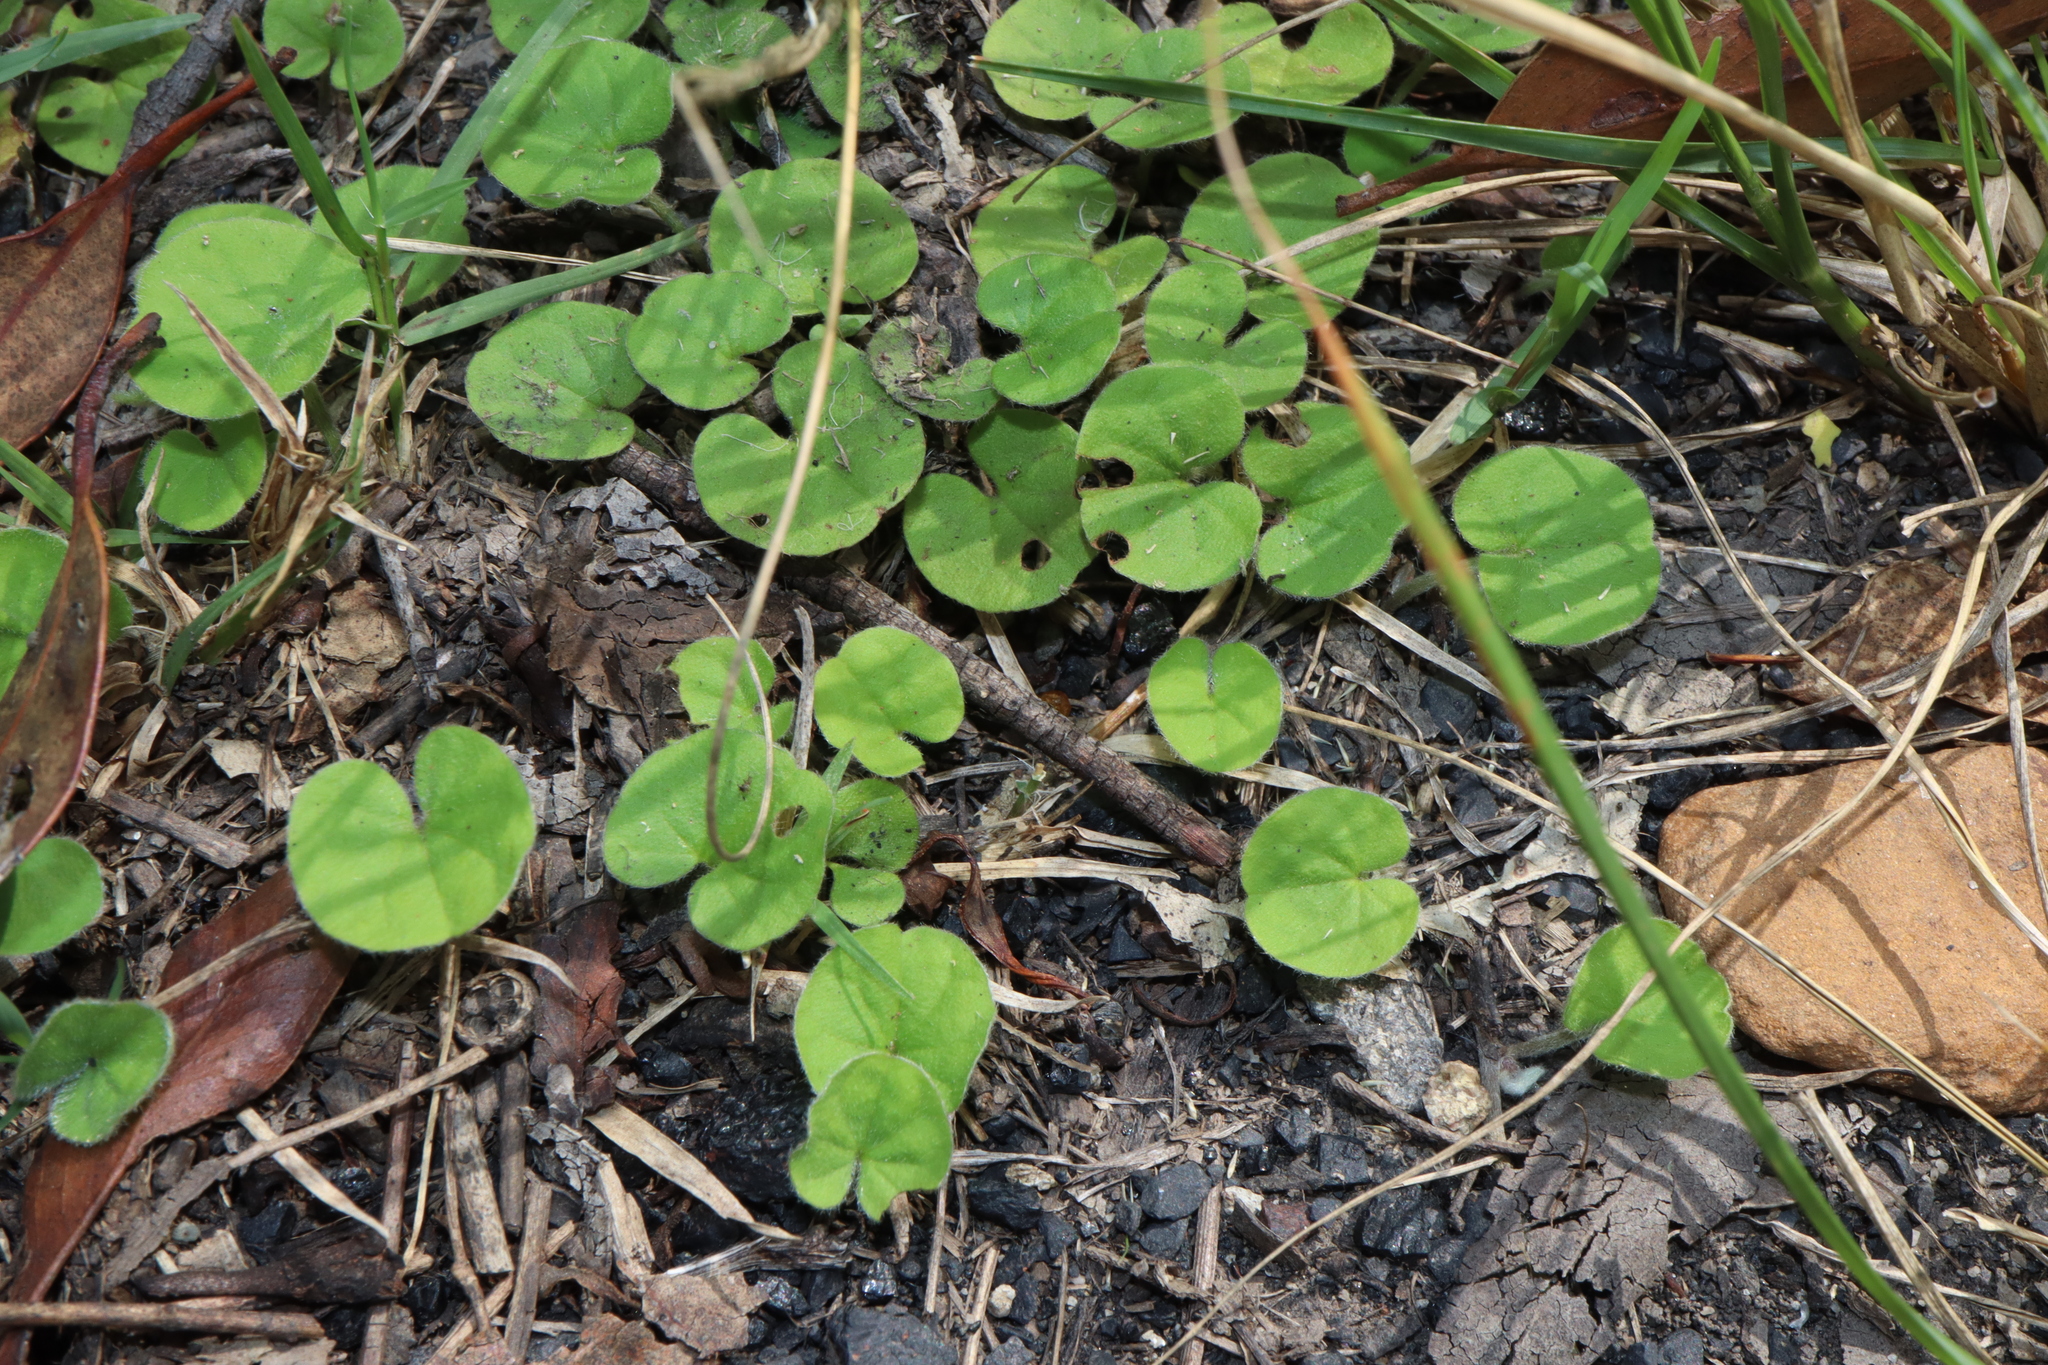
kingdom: Plantae
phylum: Tracheophyta
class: Magnoliopsida
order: Solanales
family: Convolvulaceae
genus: Dichondra
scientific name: Dichondra repens
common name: Kidneyweed
